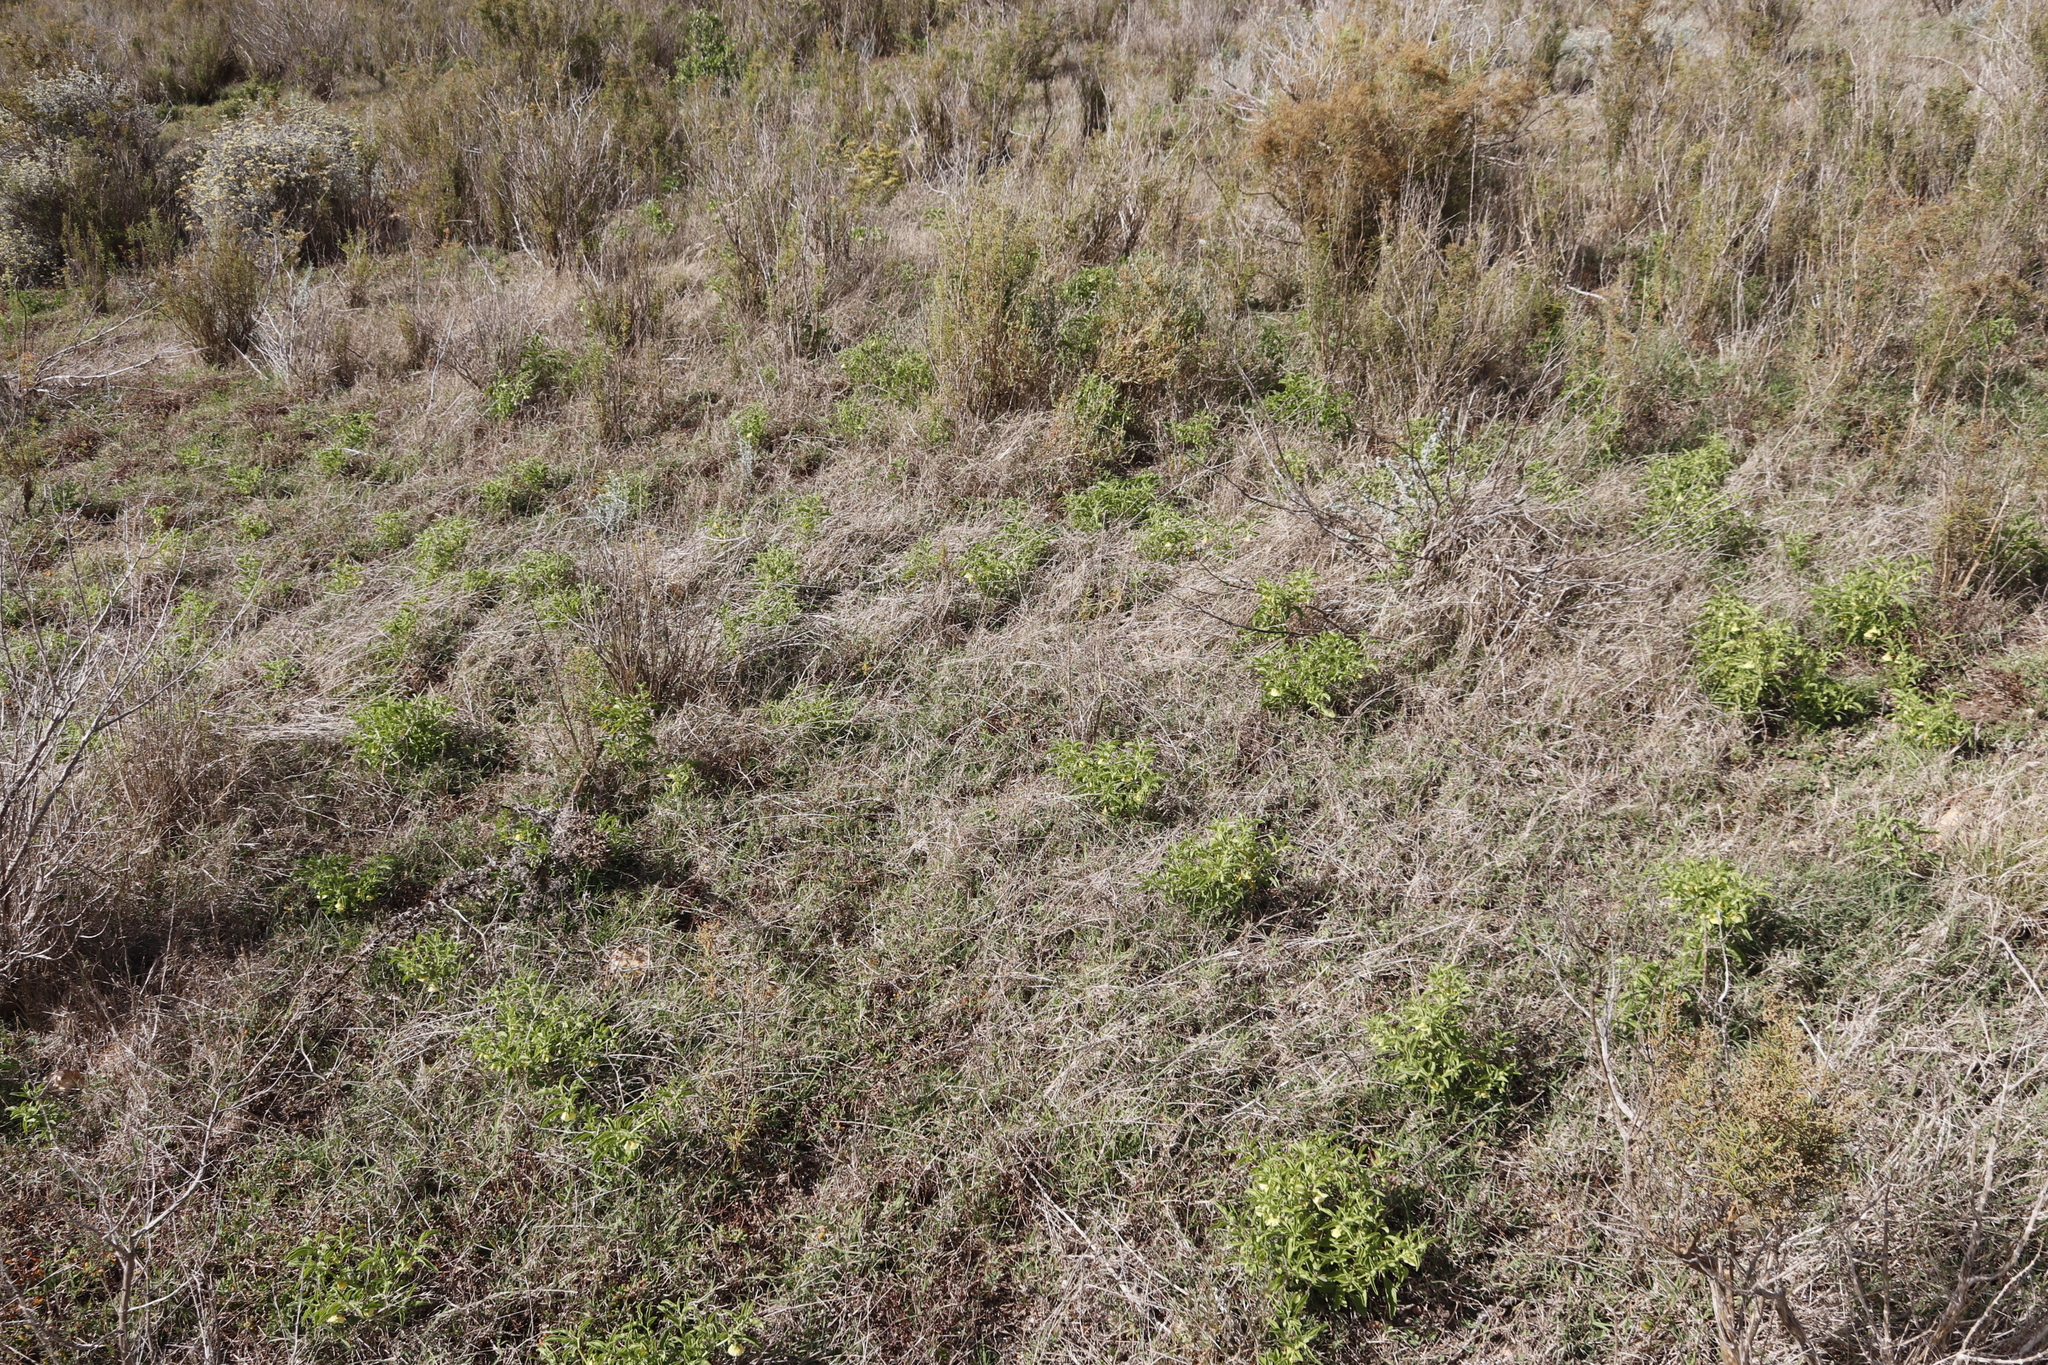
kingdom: Plantae
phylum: Tracheophyta
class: Magnoliopsida
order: Solanales
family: Solanaceae
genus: Physalis
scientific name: Physalis viscosa
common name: Stellate ground-cherry
